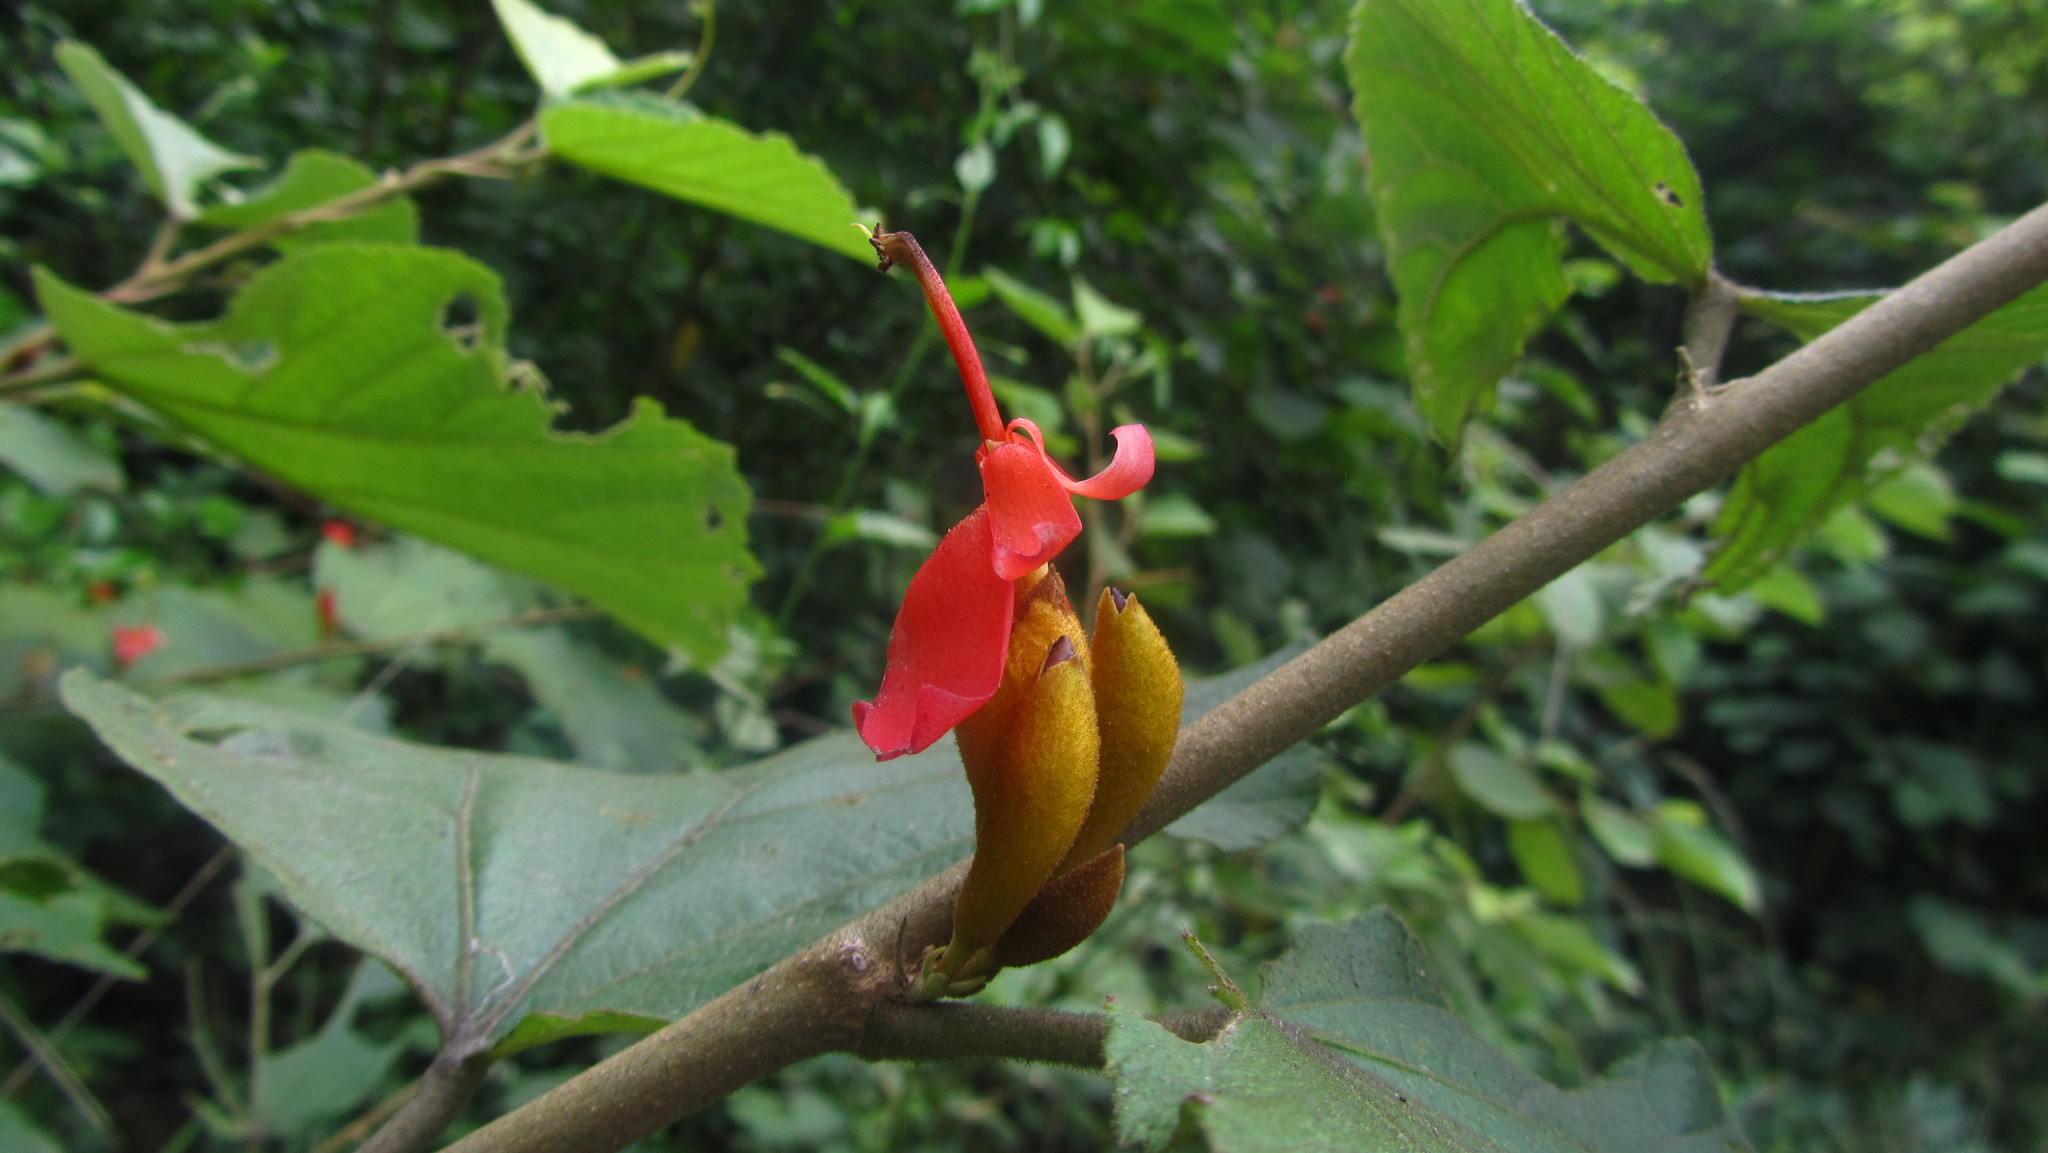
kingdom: Plantae
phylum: Tracheophyta
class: Magnoliopsida
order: Malvales
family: Malvaceae
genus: Helicteres
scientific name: Helicteres isora
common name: East indian screwtree
